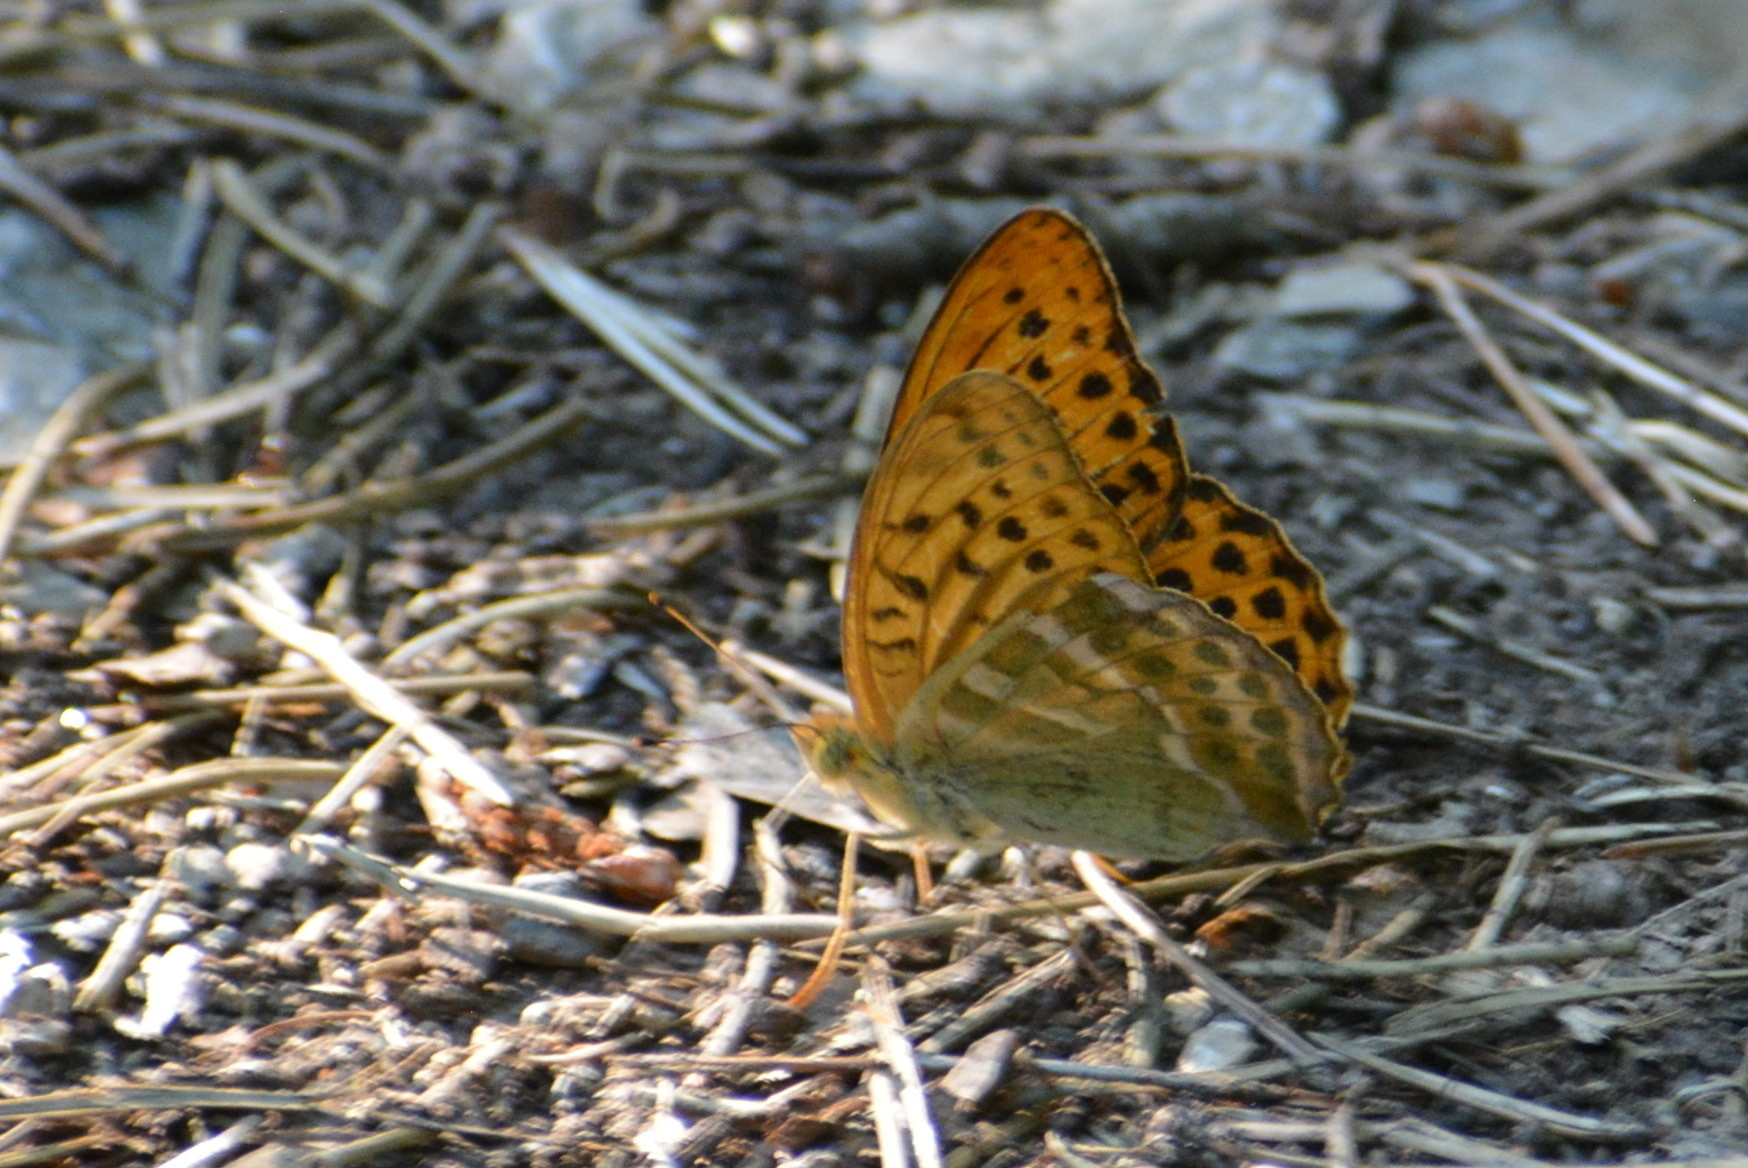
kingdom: Animalia
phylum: Arthropoda
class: Insecta
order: Lepidoptera
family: Nymphalidae
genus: Argynnis
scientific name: Argynnis paphia
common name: Silver-washed fritillary
